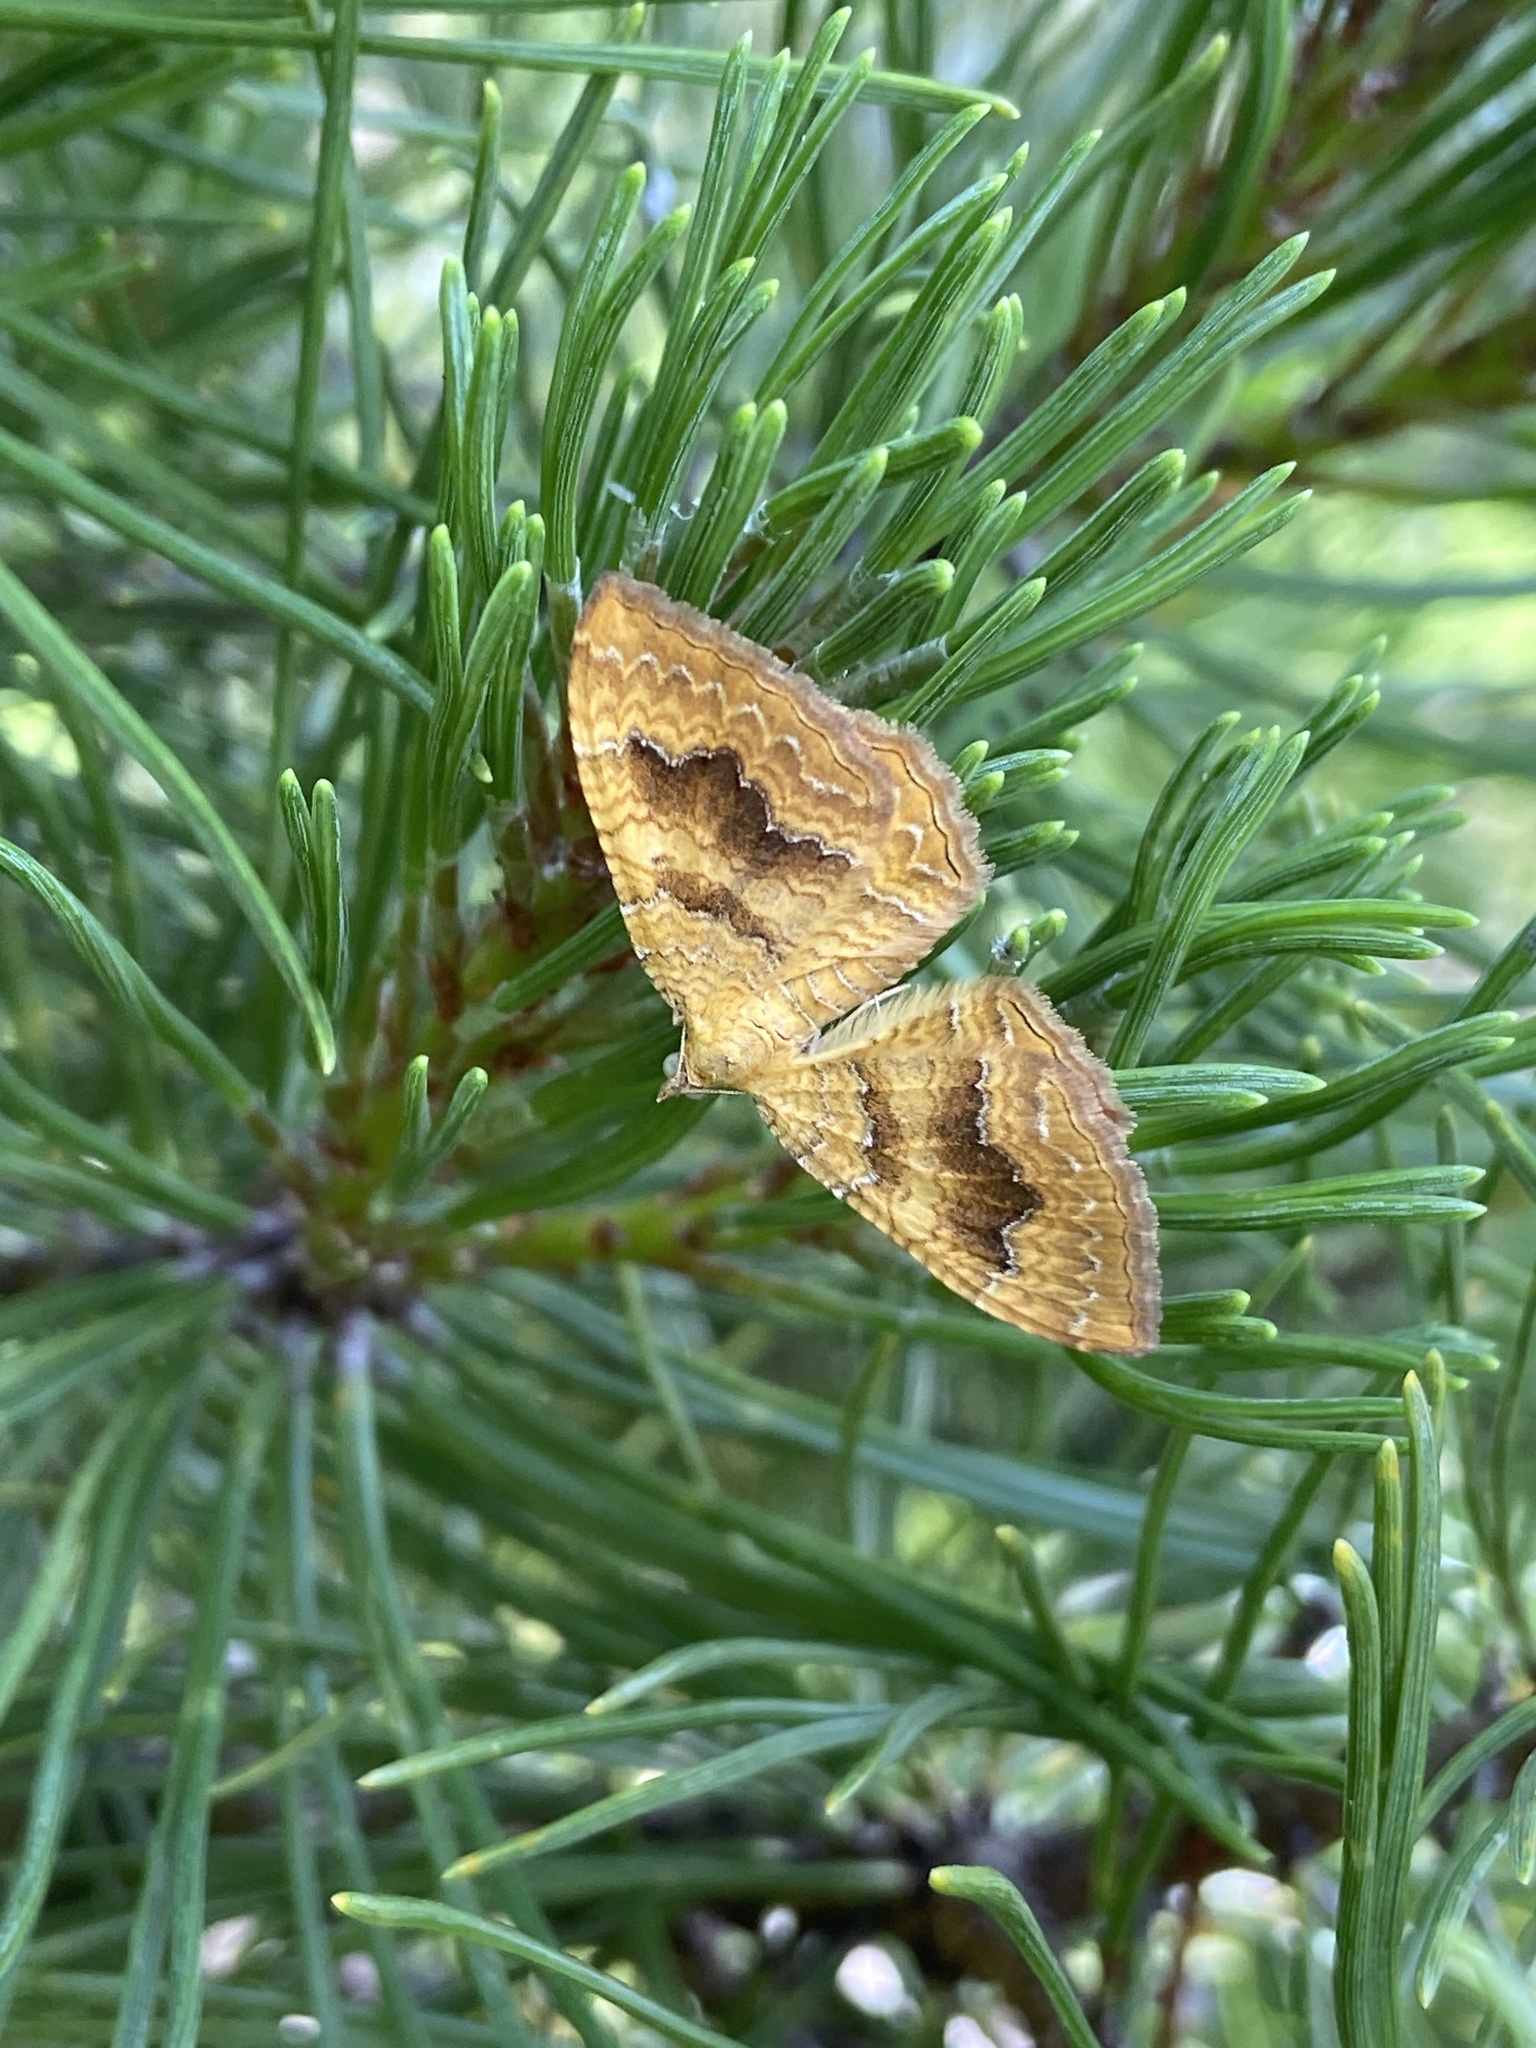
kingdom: Animalia
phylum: Arthropoda
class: Insecta
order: Lepidoptera
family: Geometridae
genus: Camptogramma
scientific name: Camptogramma bilineata
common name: Yellow shell
